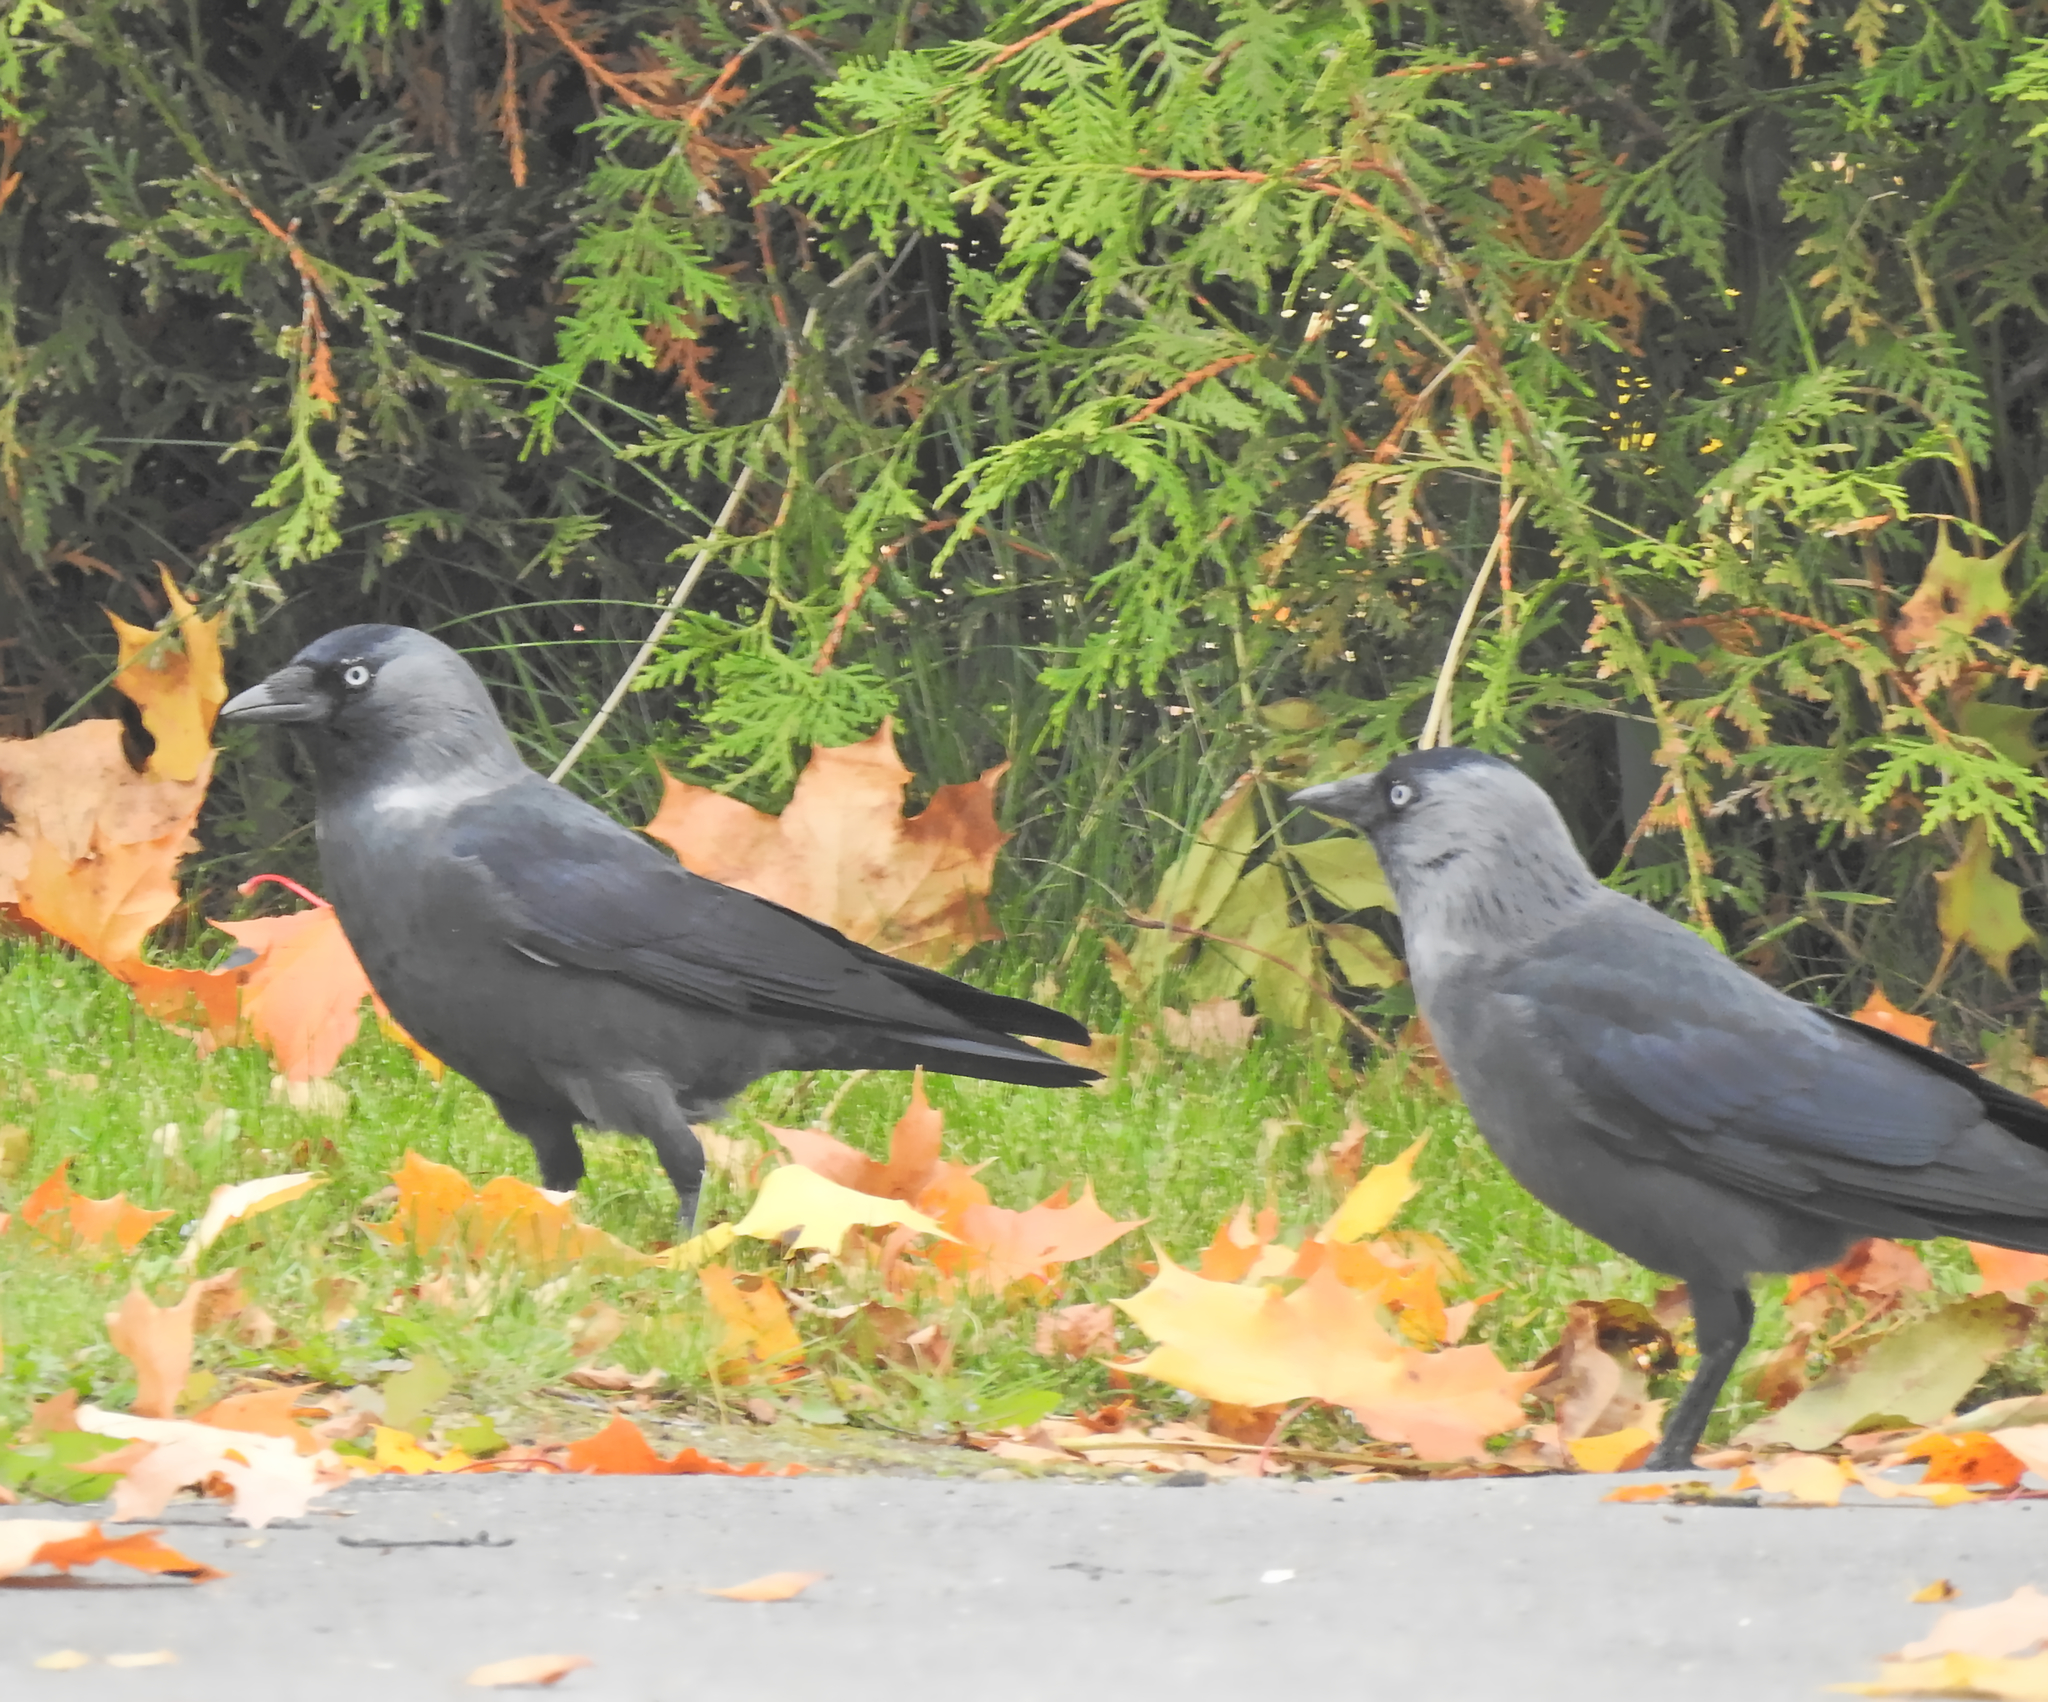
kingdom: Animalia
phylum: Chordata
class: Aves
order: Passeriformes
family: Corvidae
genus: Coloeus
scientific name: Coloeus monedula
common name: Western jackdaw
